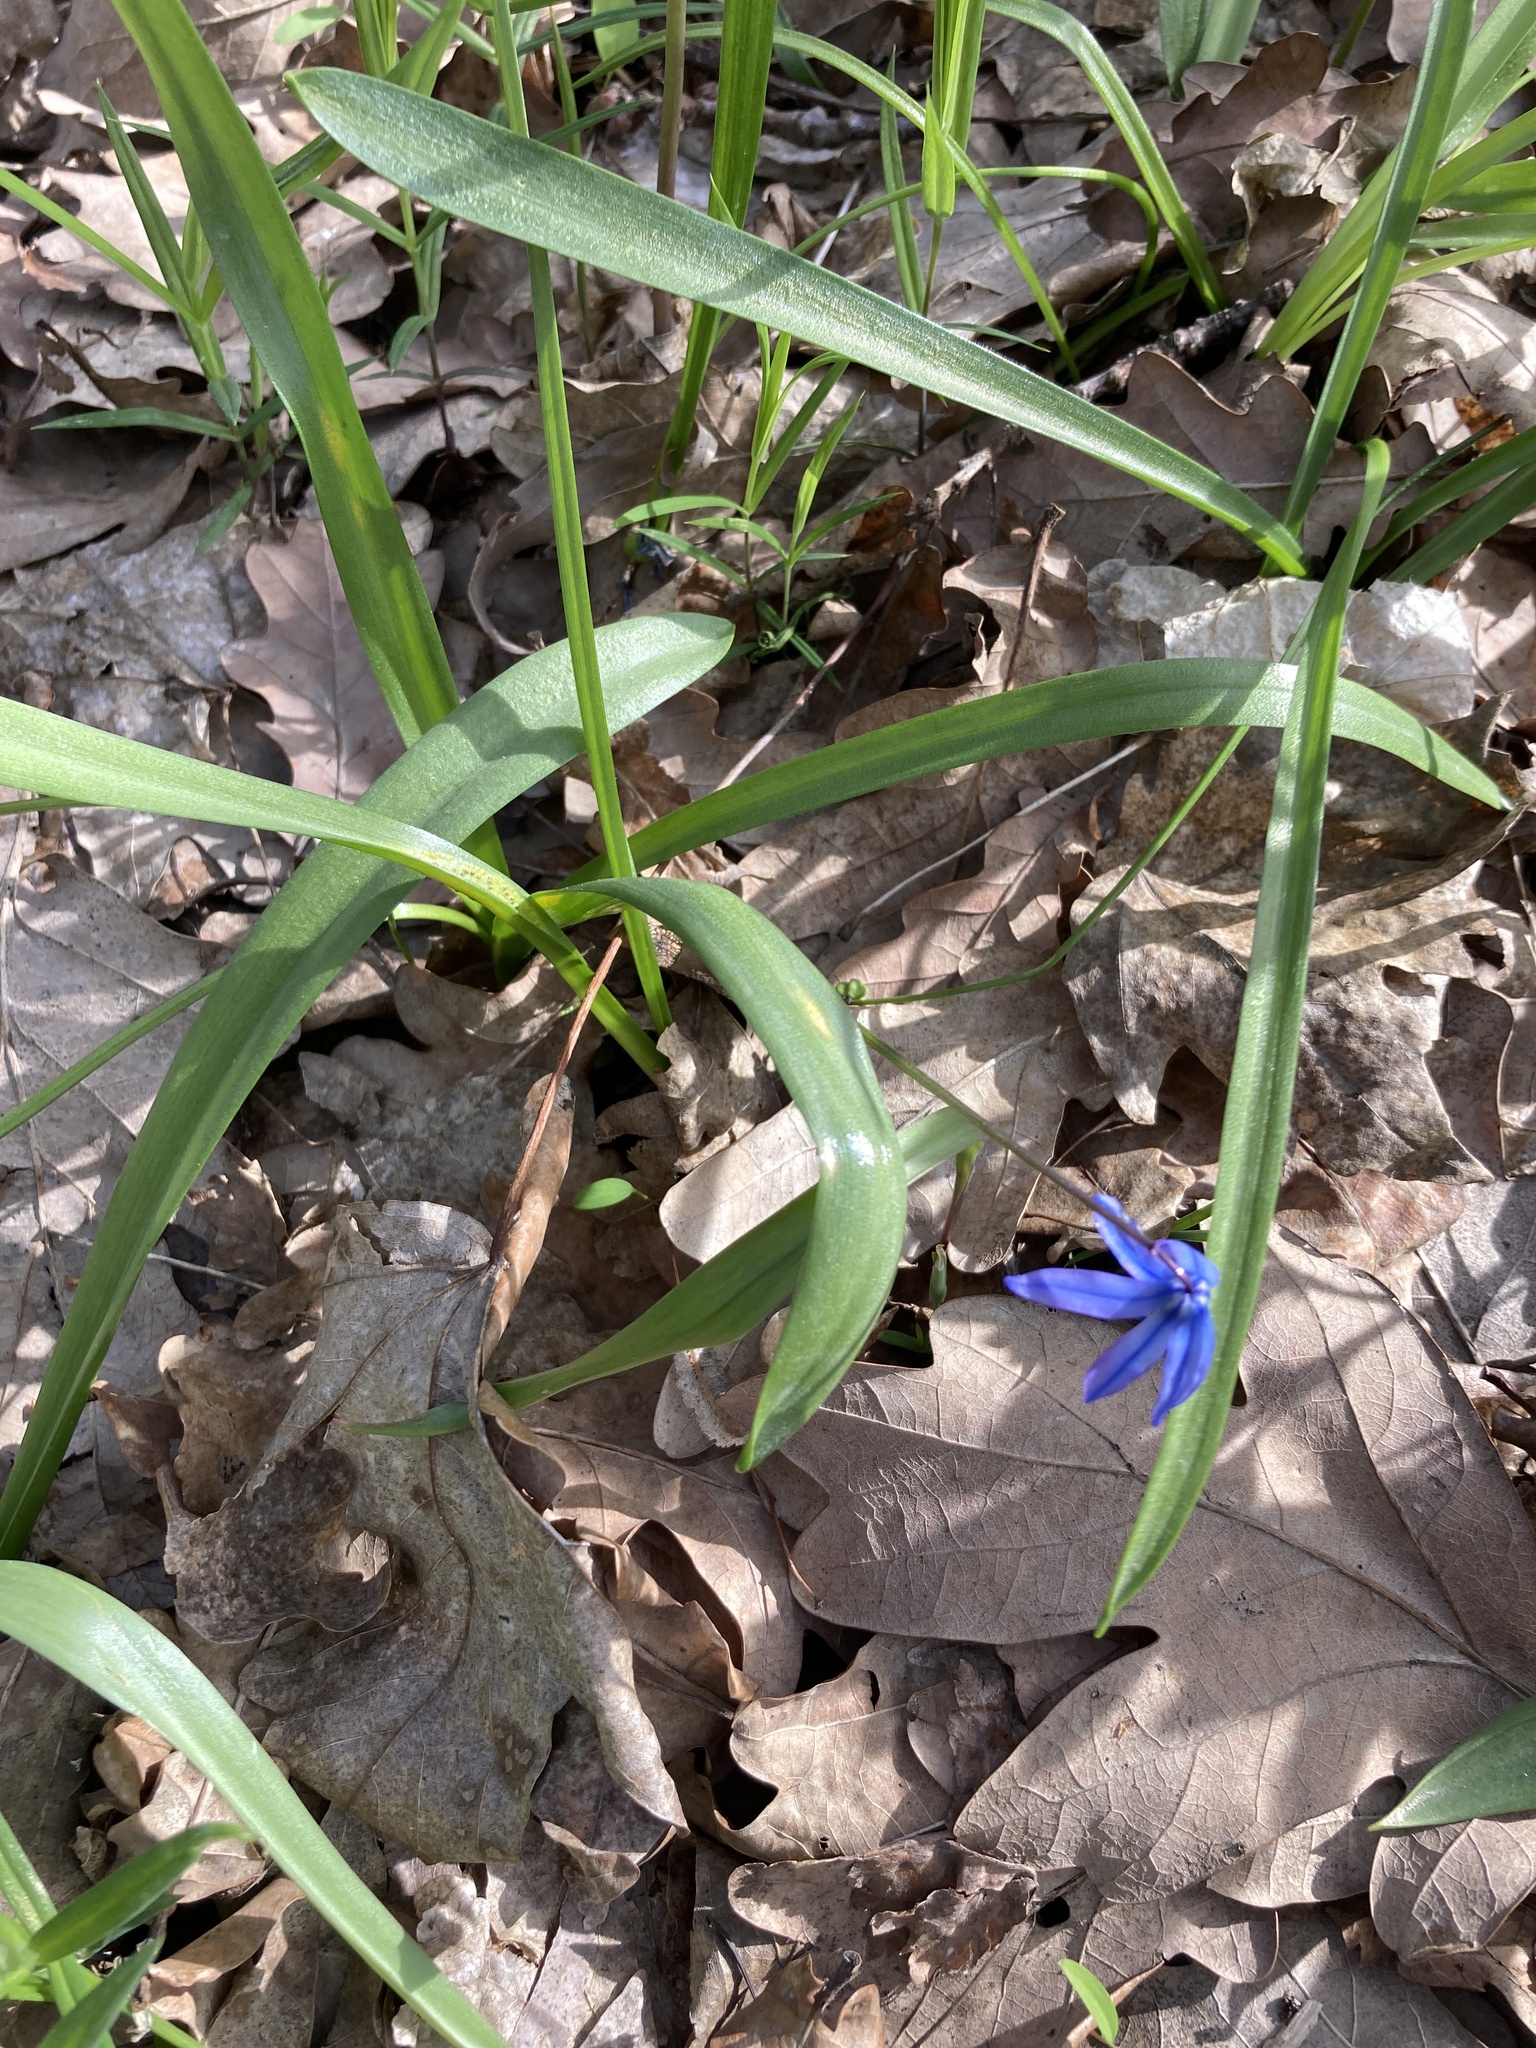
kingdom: Plantae
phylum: Tracheophyta
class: Liliopsida
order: Asparagales
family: Asparagaceae
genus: Scilla
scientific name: Scilla siberica
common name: Siberian squill
